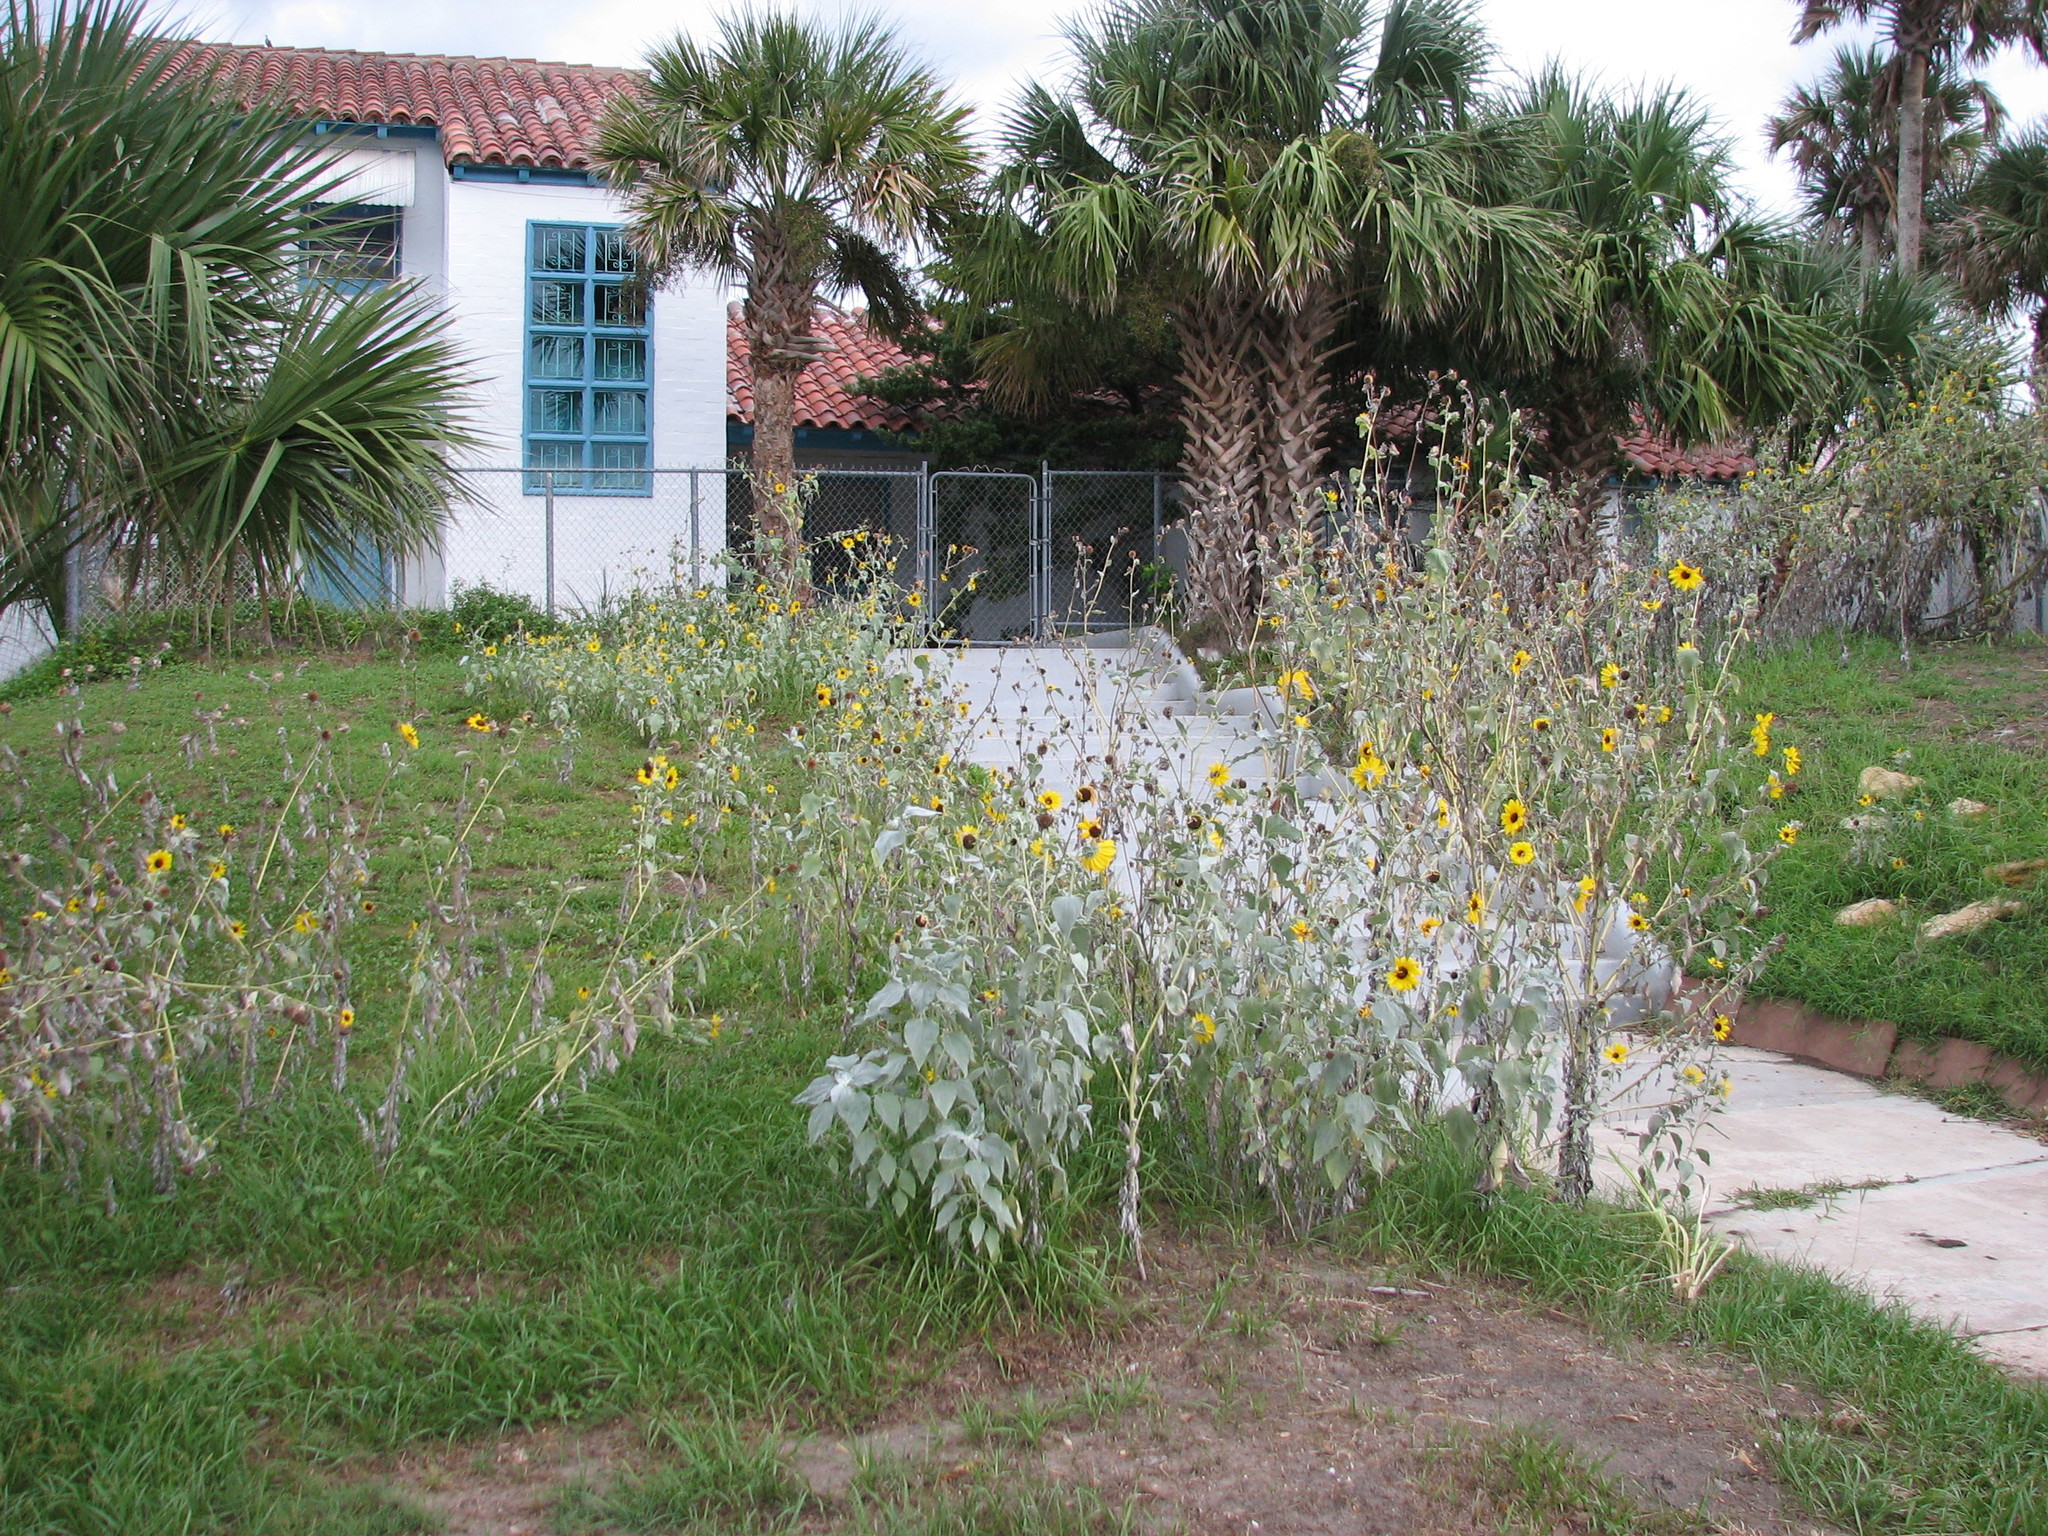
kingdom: Plantae
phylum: Tracheophyta
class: Magnoliopsida
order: Asterales
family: Asteraceae
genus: Helianthus
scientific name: Helianthus argophyllus
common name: Silverleaf sunflower
